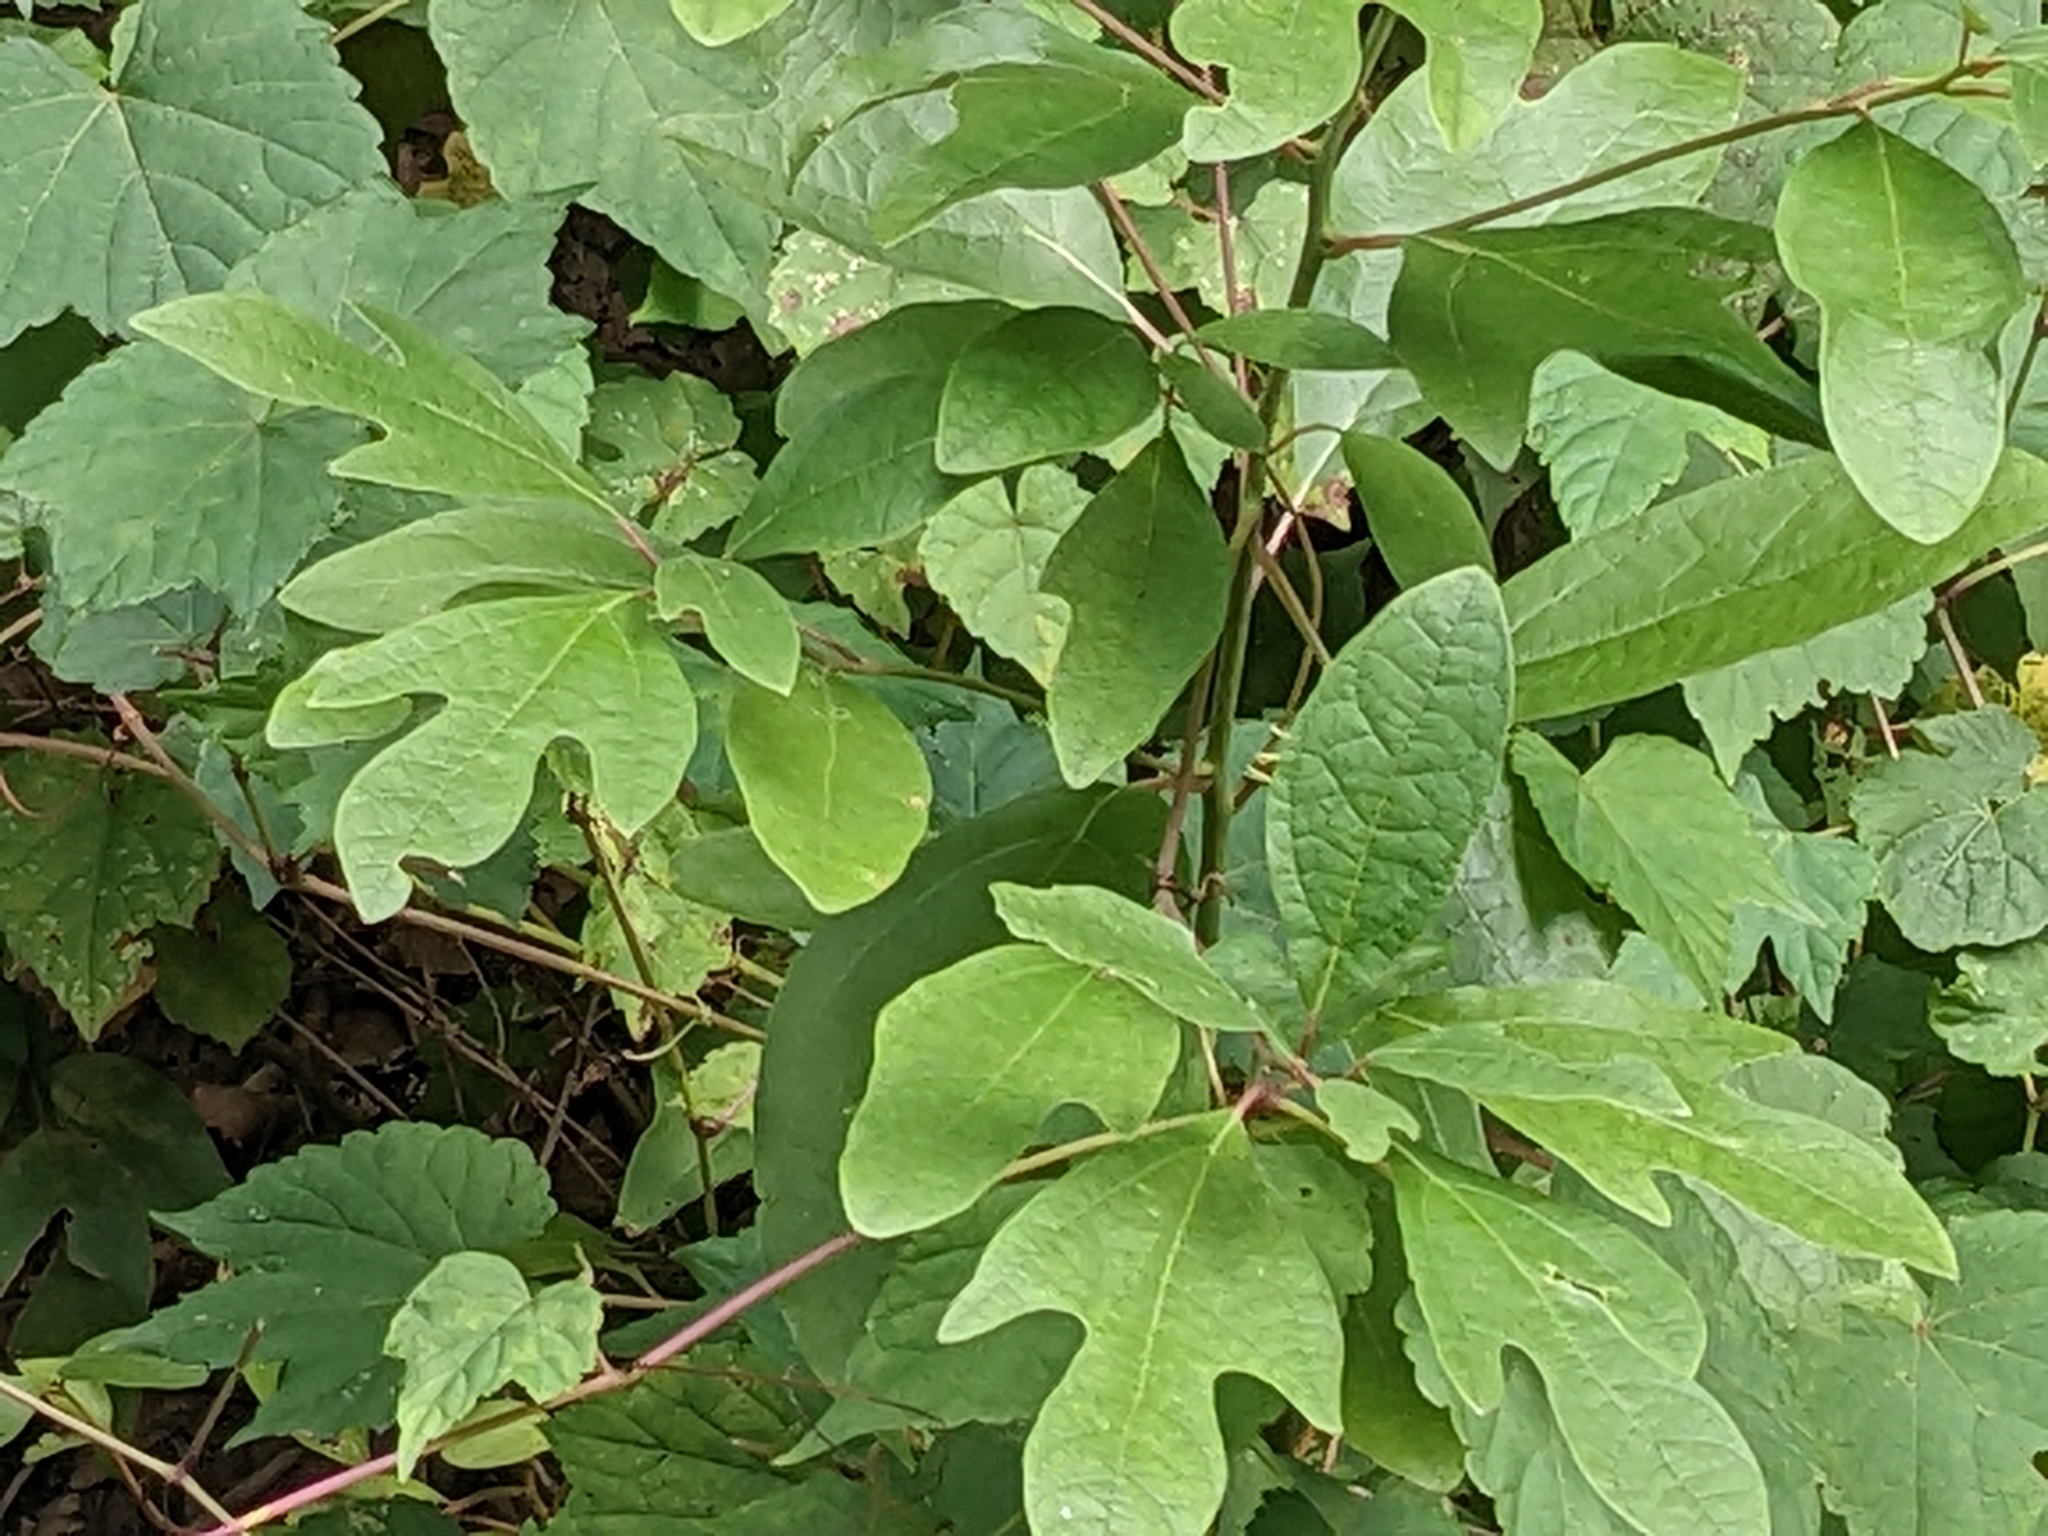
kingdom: Plantae
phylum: Tracheophyta
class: Magnoliopsida
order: Laurales
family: Lauraceae
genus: Sassafras
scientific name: Sassafras albidum
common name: Sassafras
